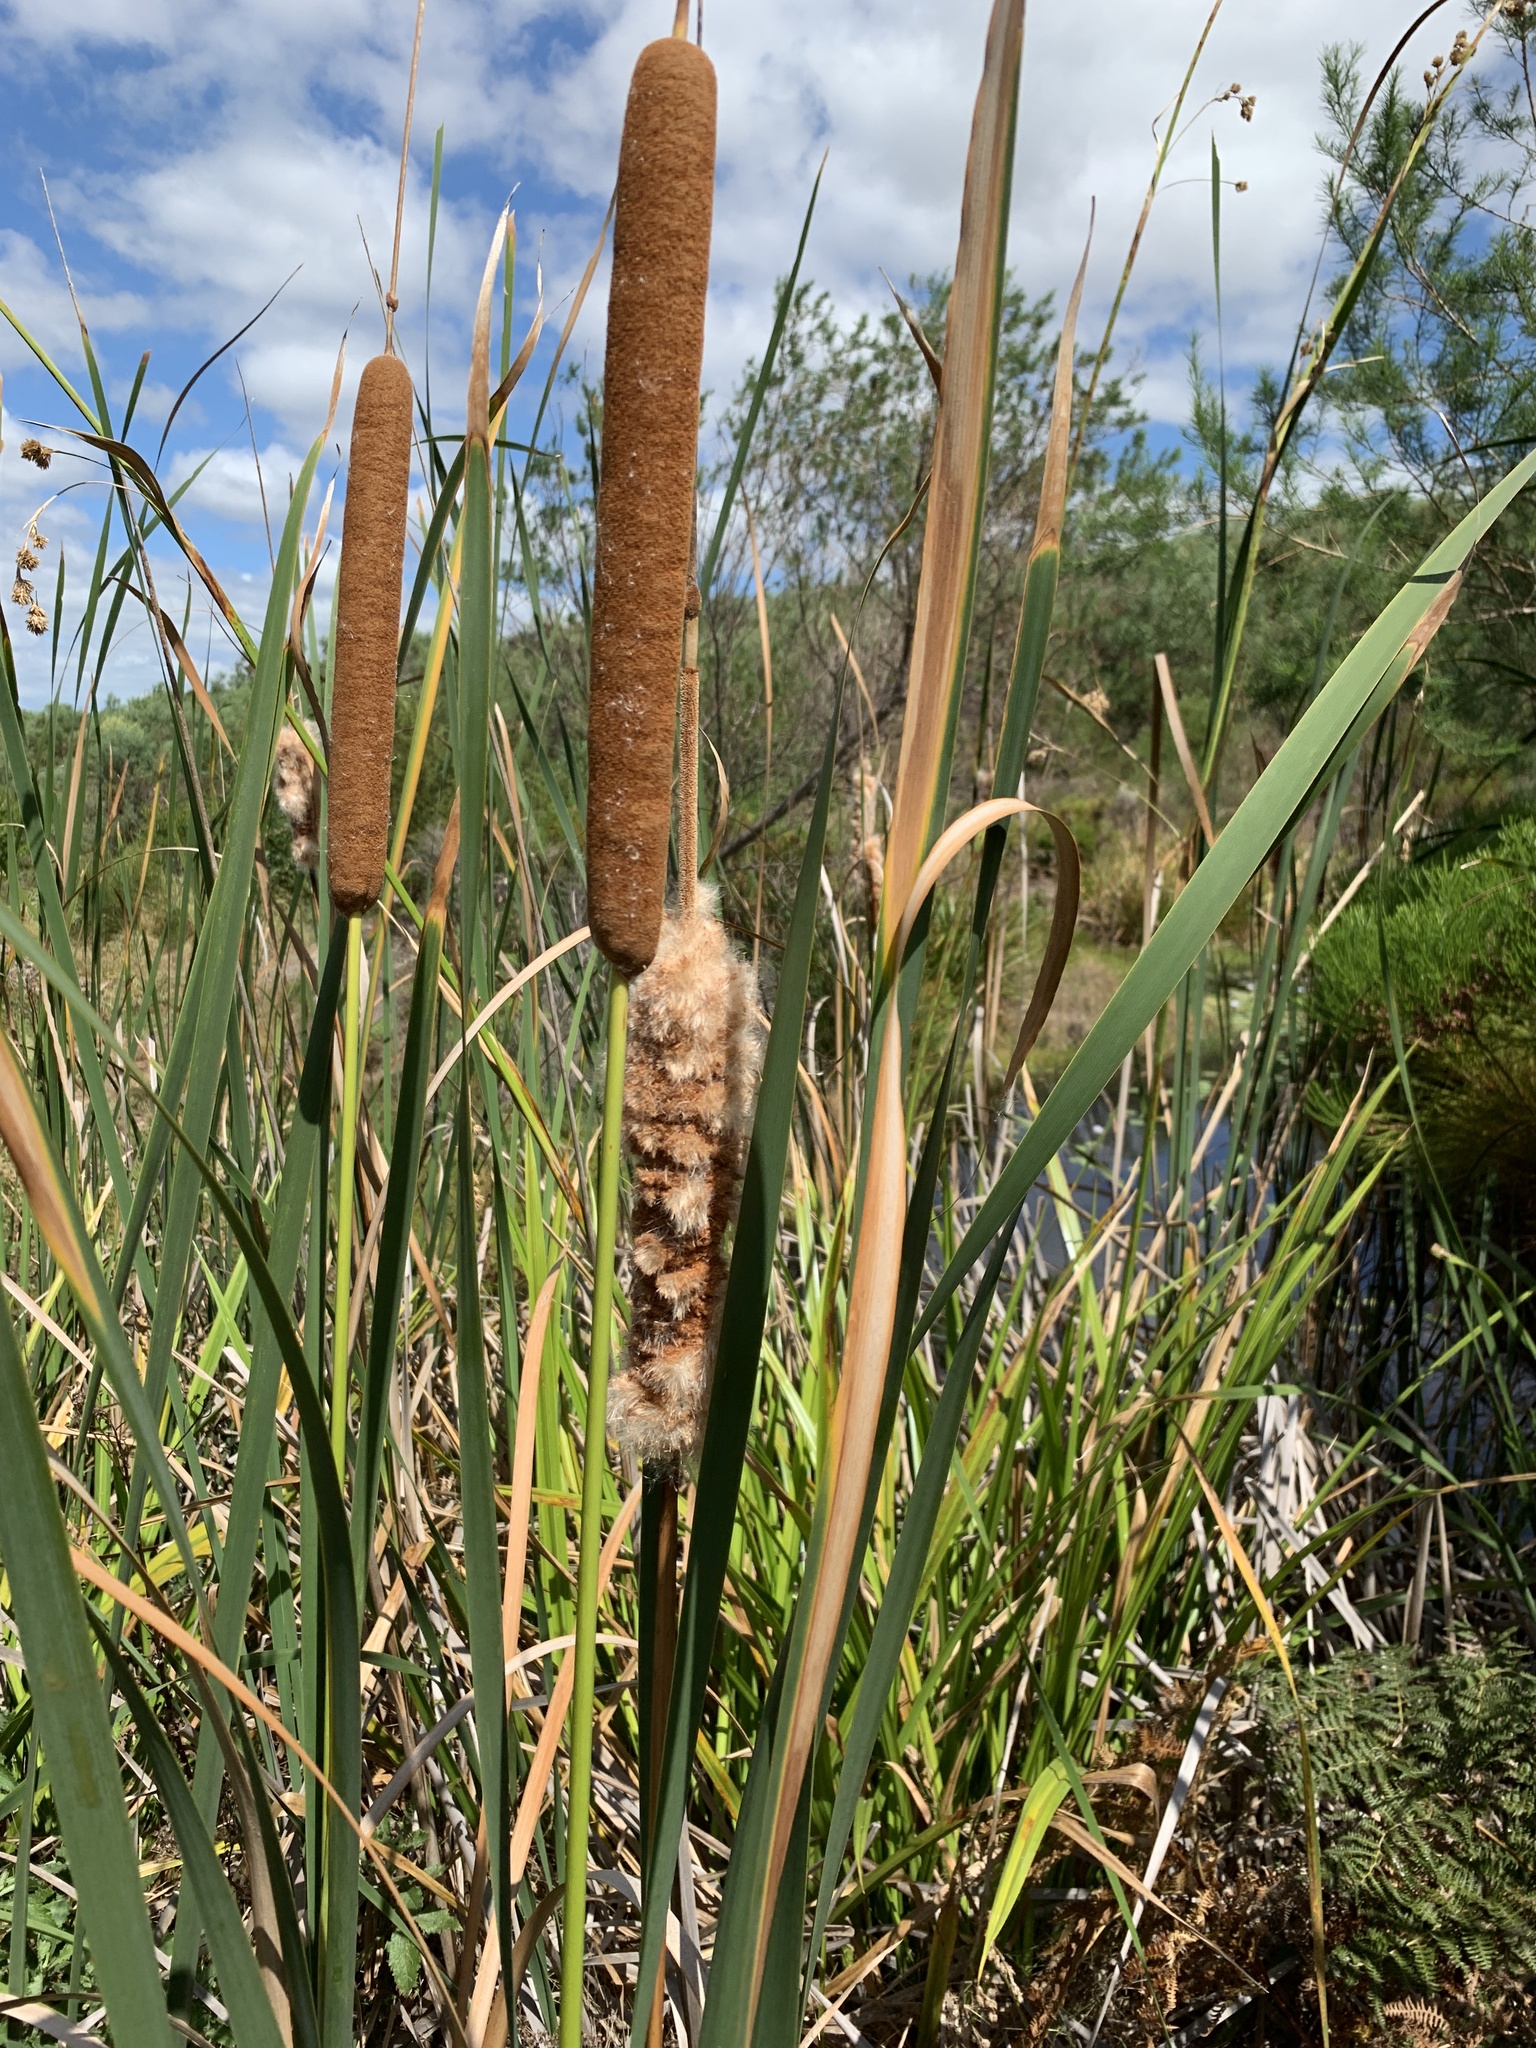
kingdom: Plantae
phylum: Tracheophyta
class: Liliopsida
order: Poales
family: Typhaceae
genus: Typha
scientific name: Typha capensis
